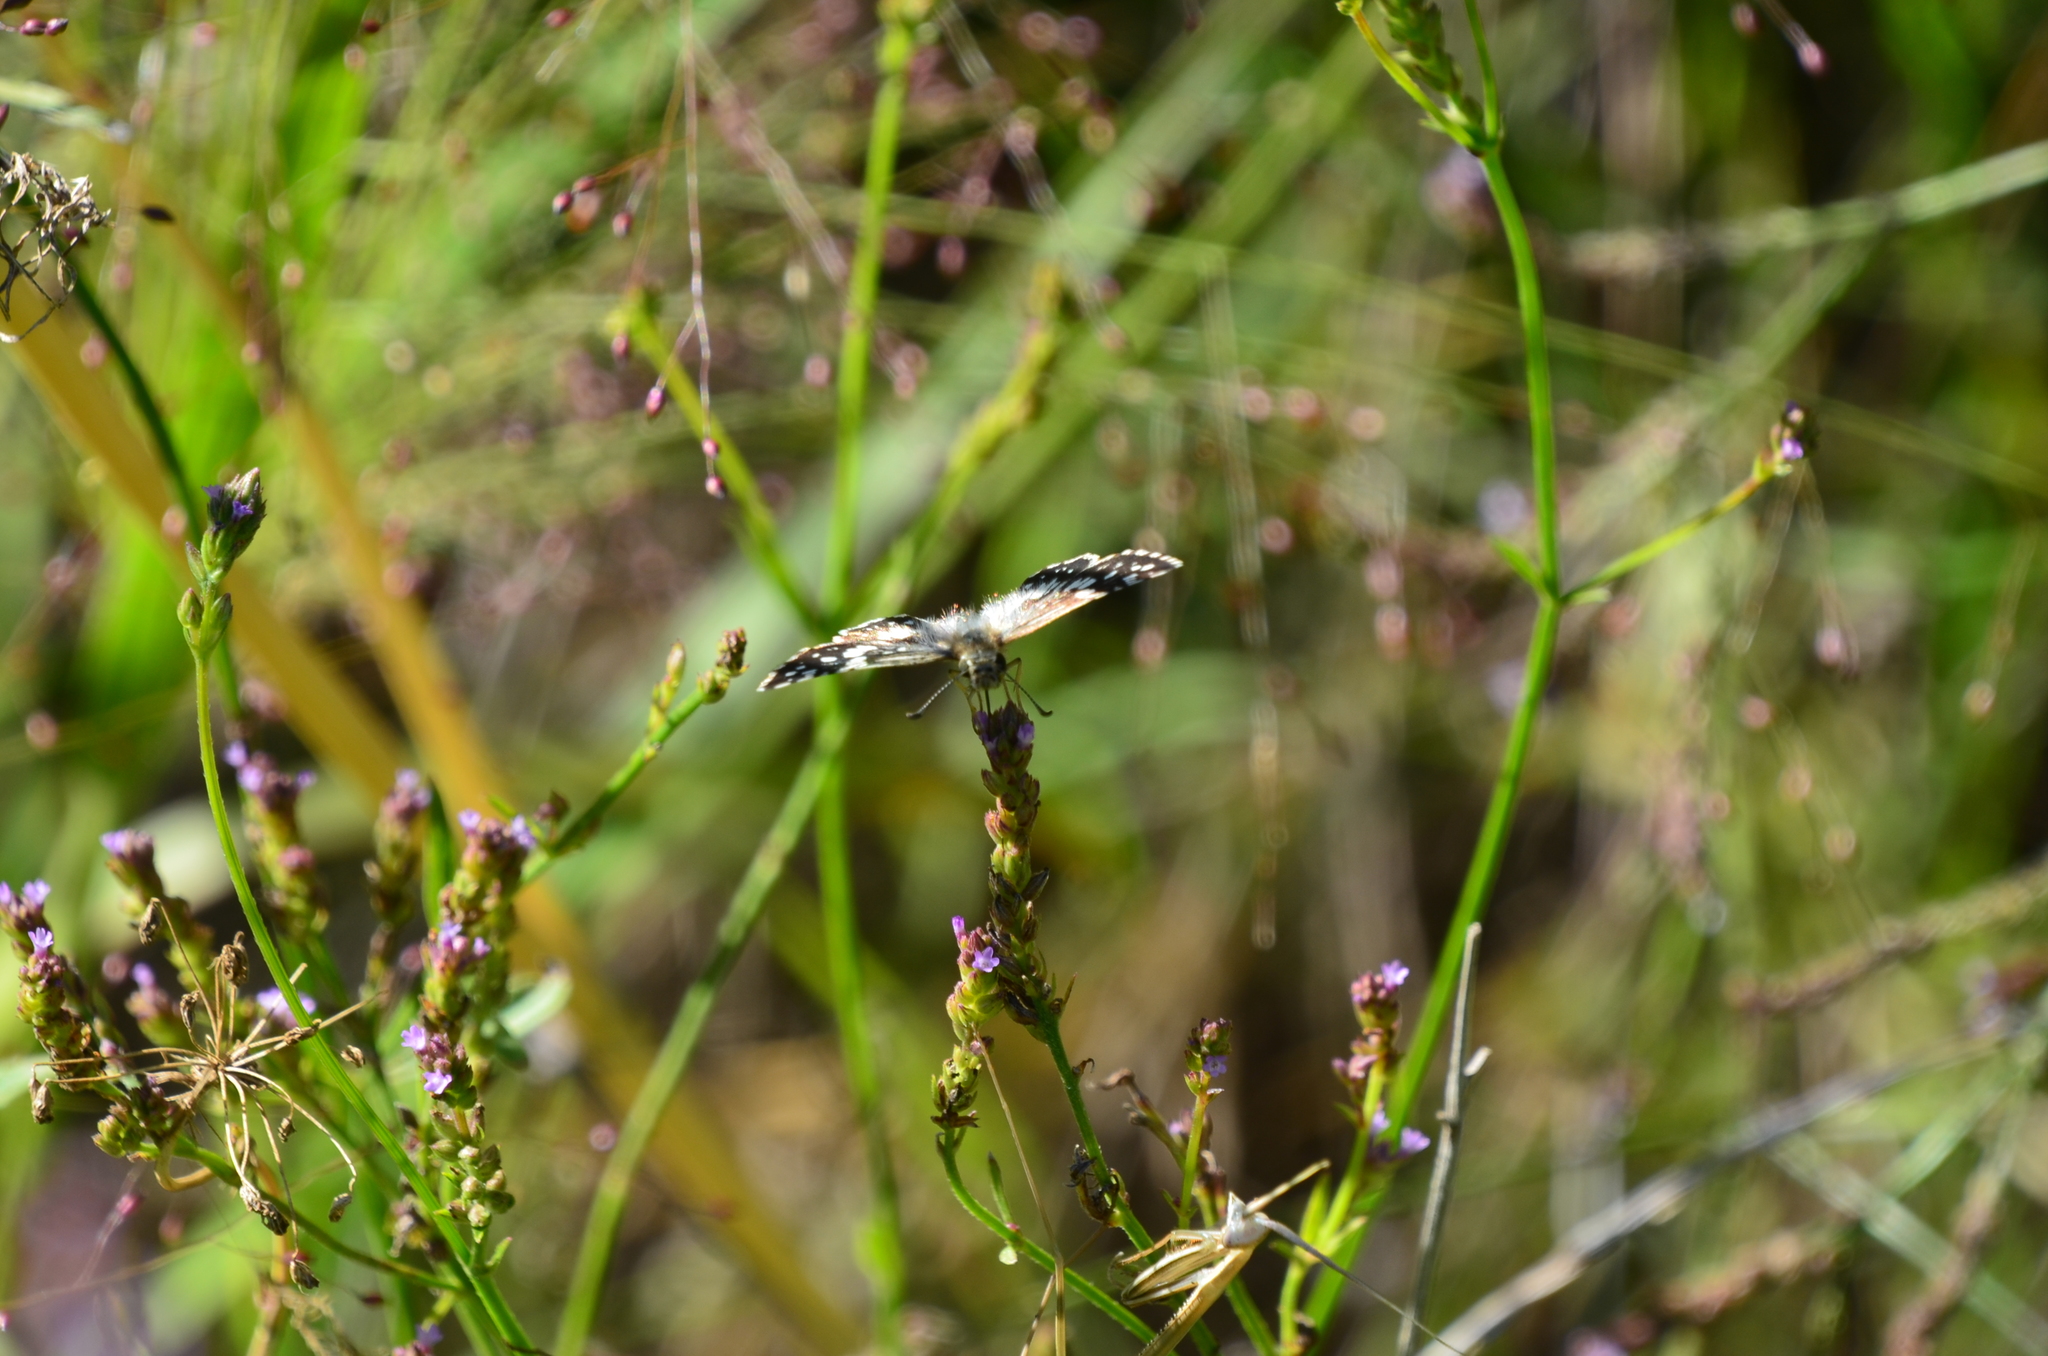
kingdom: Animalia
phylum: Arthropoda
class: Insecta
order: Lepidoptera
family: Hesperiidae
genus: Burnsius
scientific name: Burnsius orcynoides
